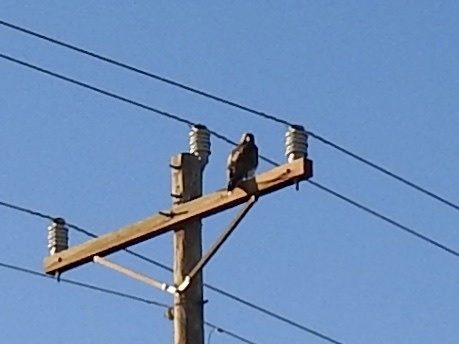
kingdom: Animalia
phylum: Chordata
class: Aves
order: Accipitriformes
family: Accipitridae
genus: Buteo
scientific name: Buteo jamaicensis
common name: Red-tailed hawk
